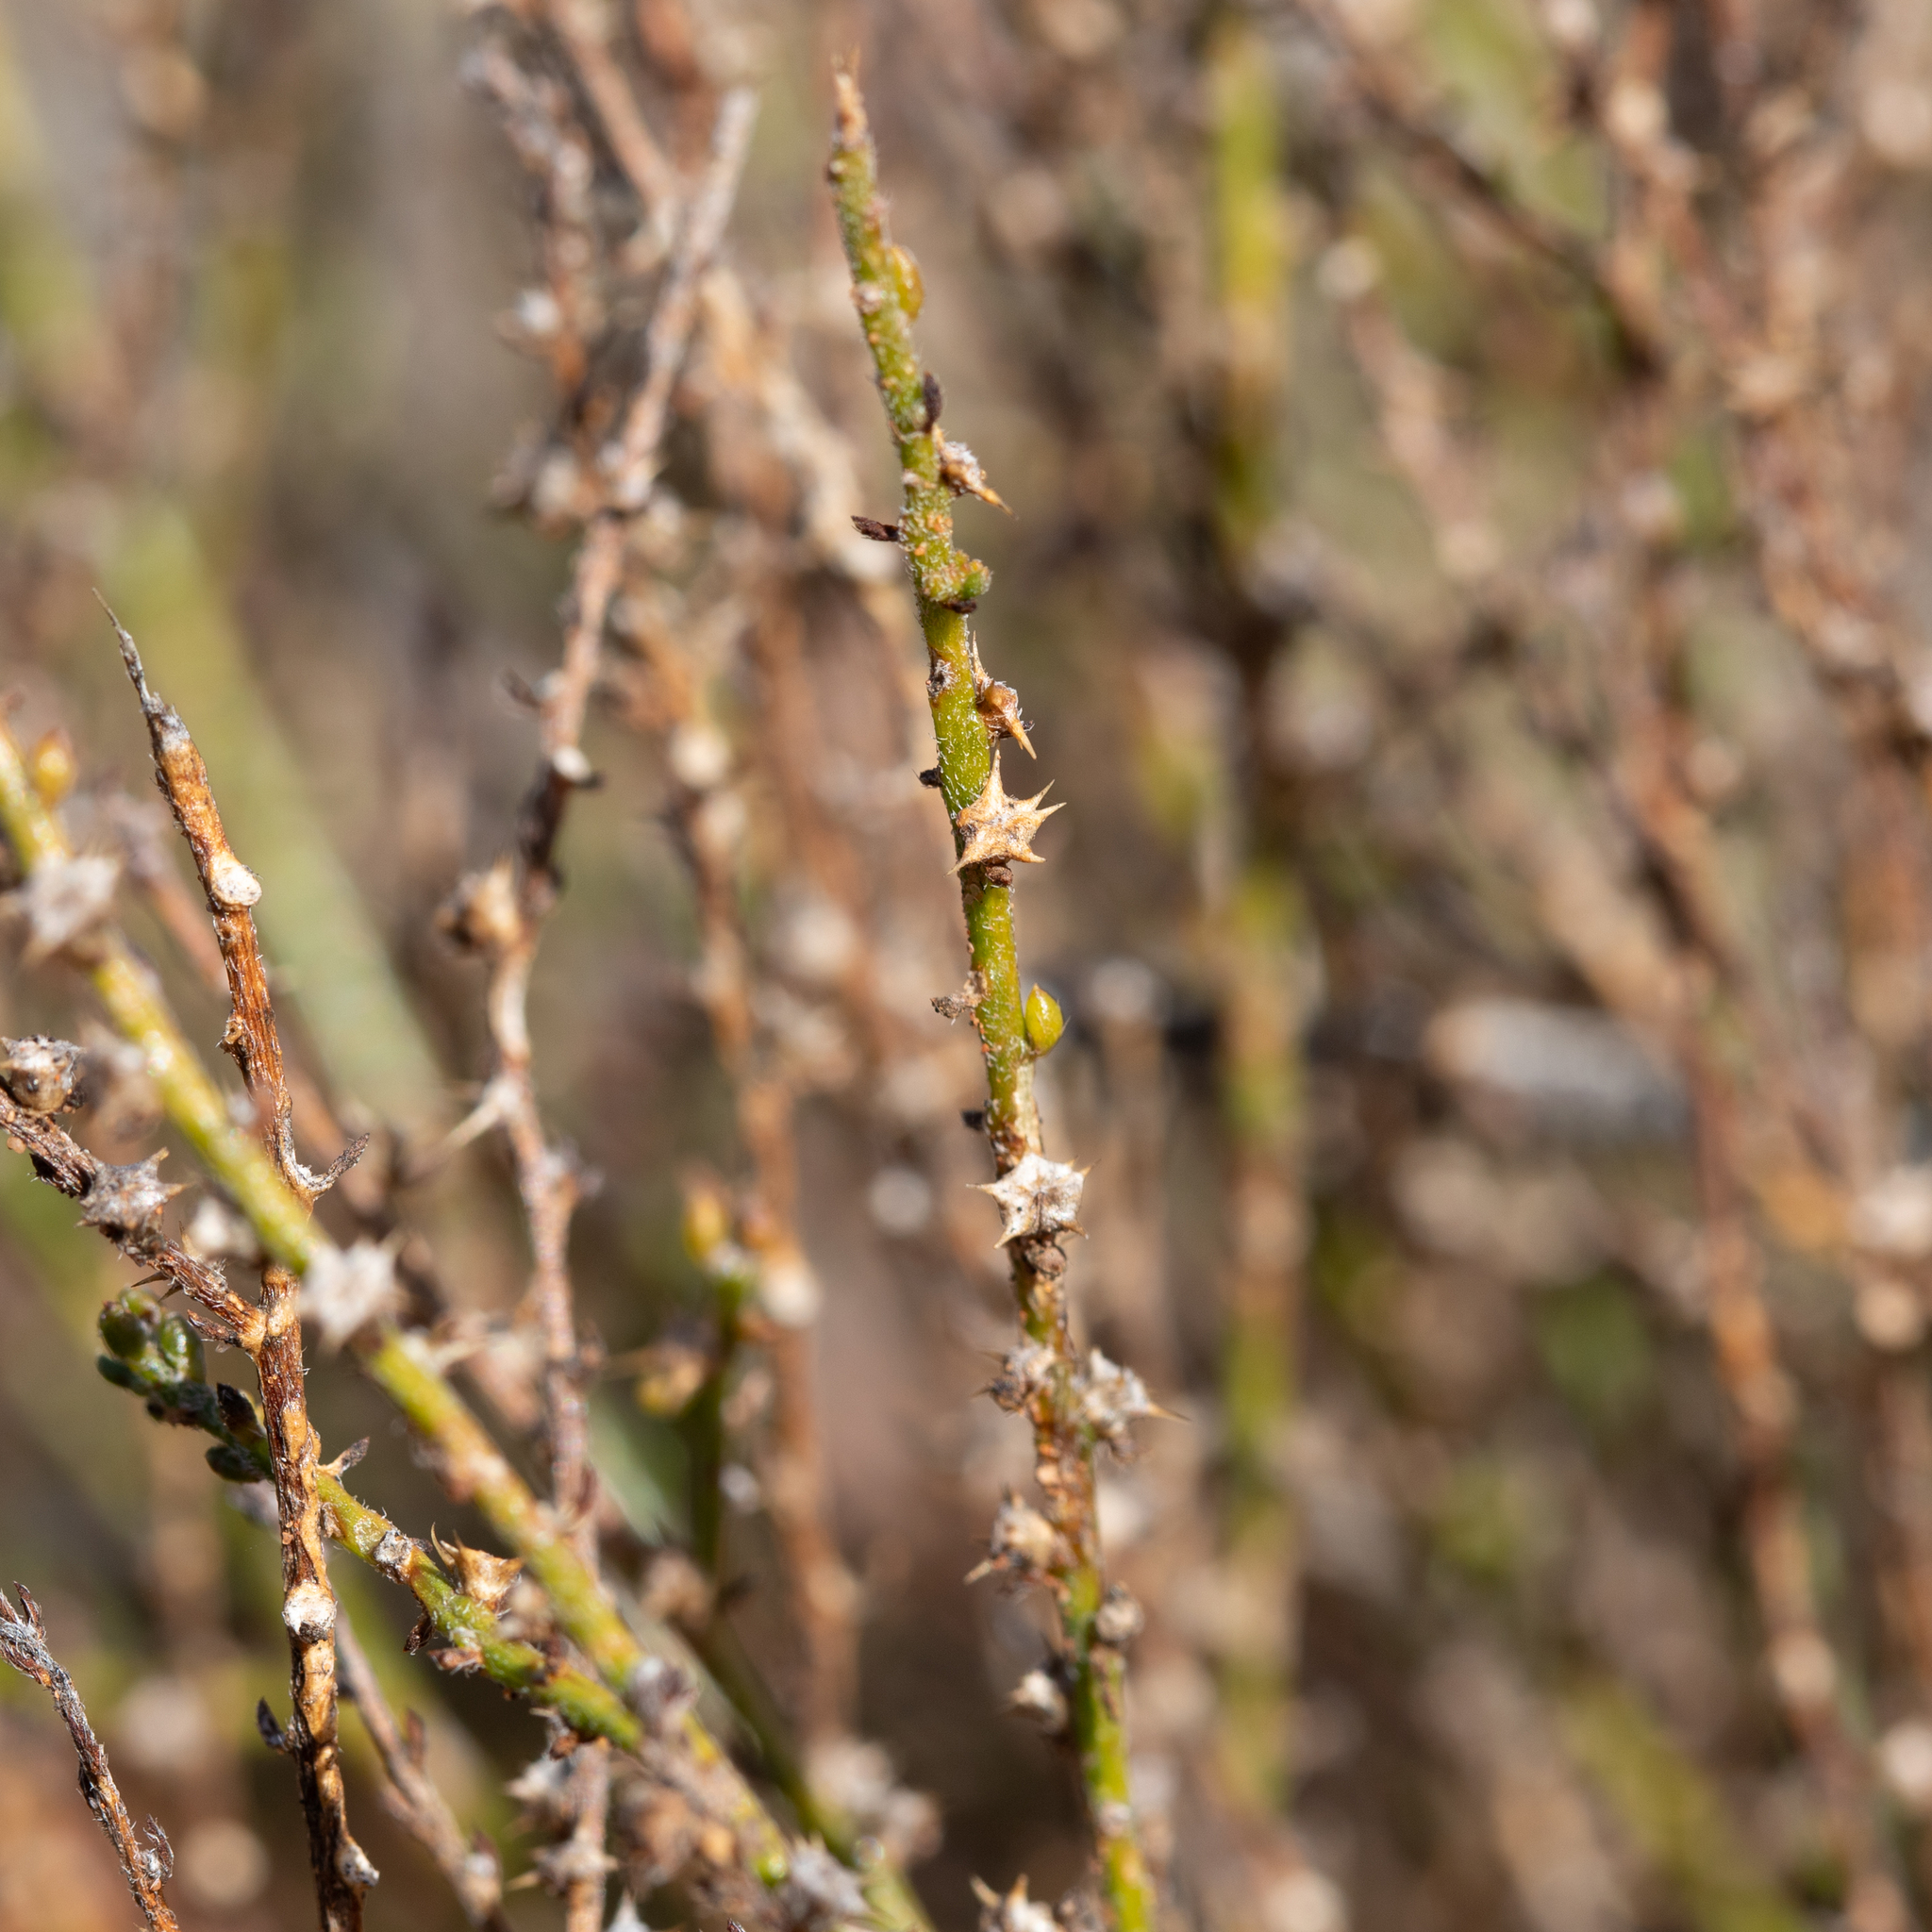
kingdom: Plantae
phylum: Tracheophyta
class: Magnoliopsida
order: Caryophyllales
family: Amaranthaceae
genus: Sclerolaena
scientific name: Sclerolaena parviflora
